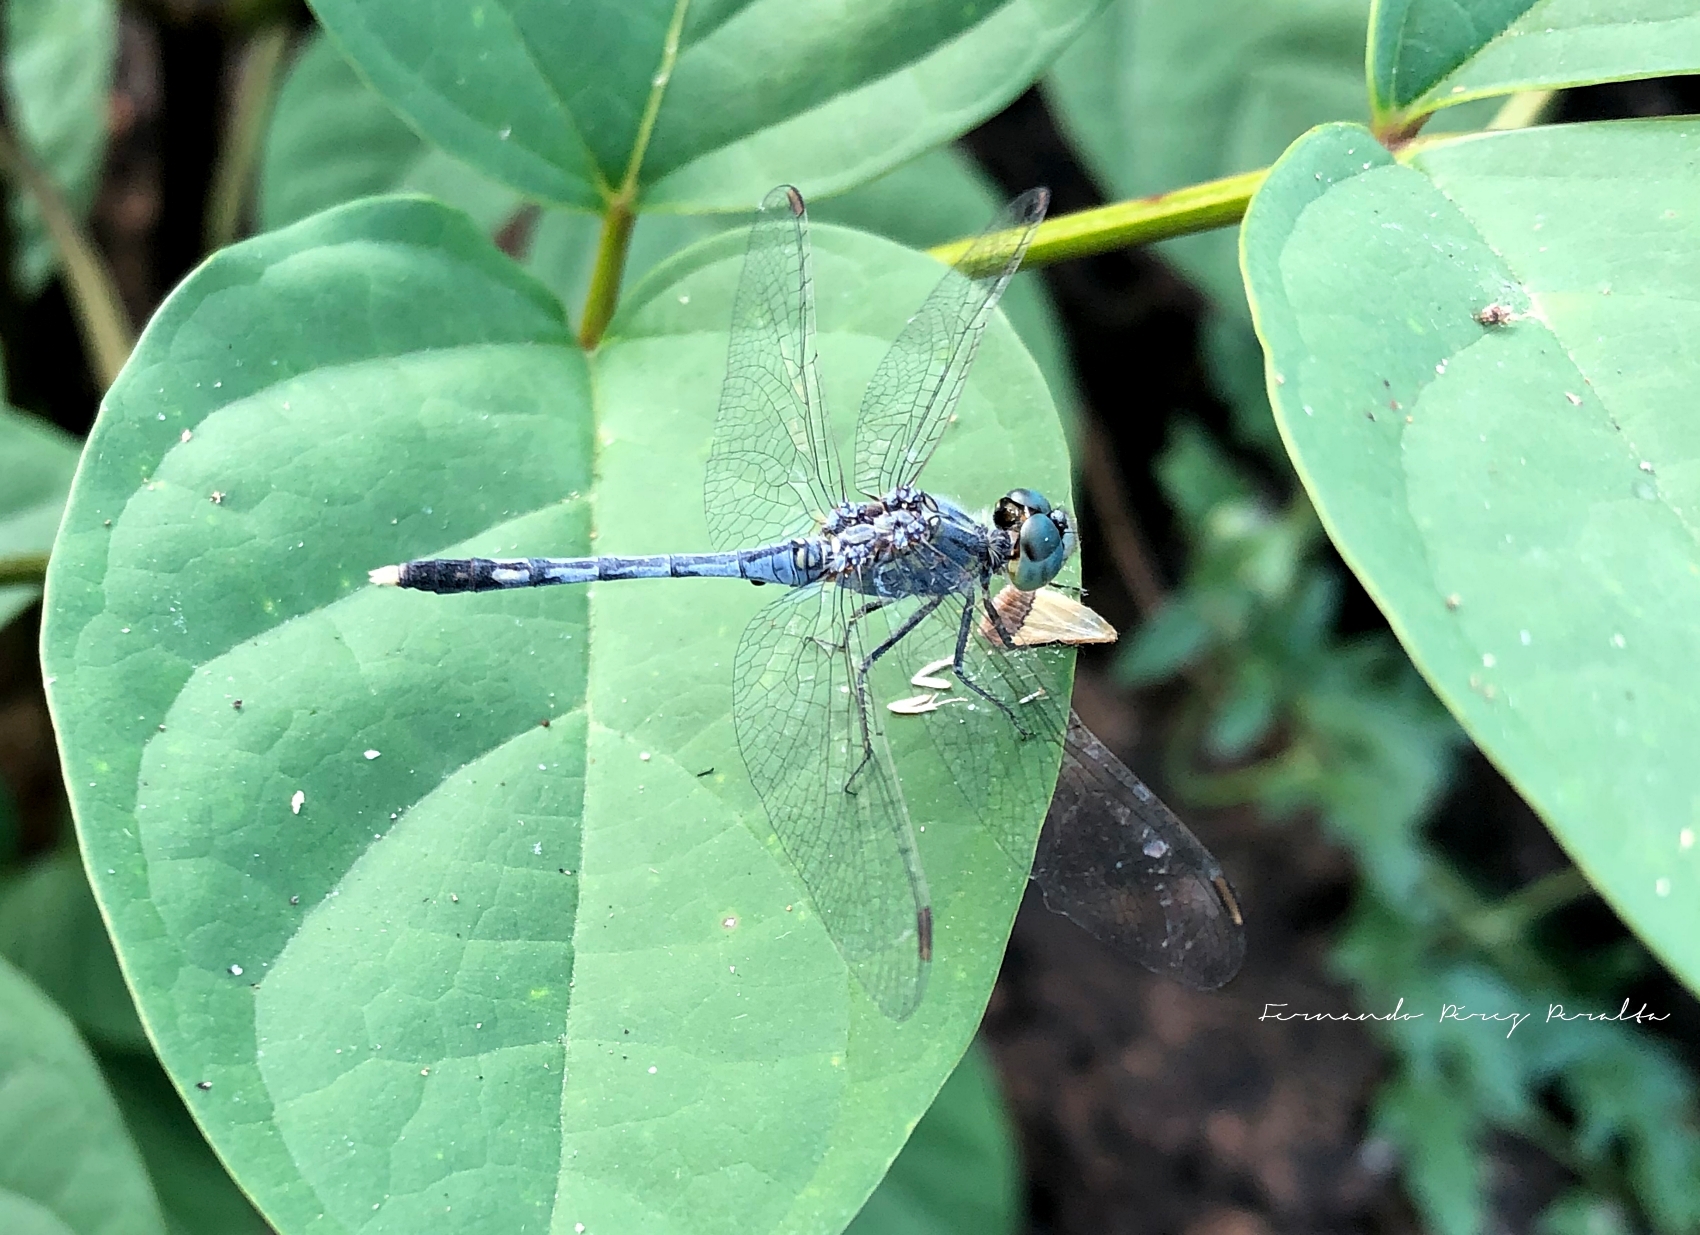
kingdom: Animalia
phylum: Arthropoda
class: Insecta
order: Odonata
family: Libellulidae
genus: Diplacodes
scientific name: Diplacodes trivialis
